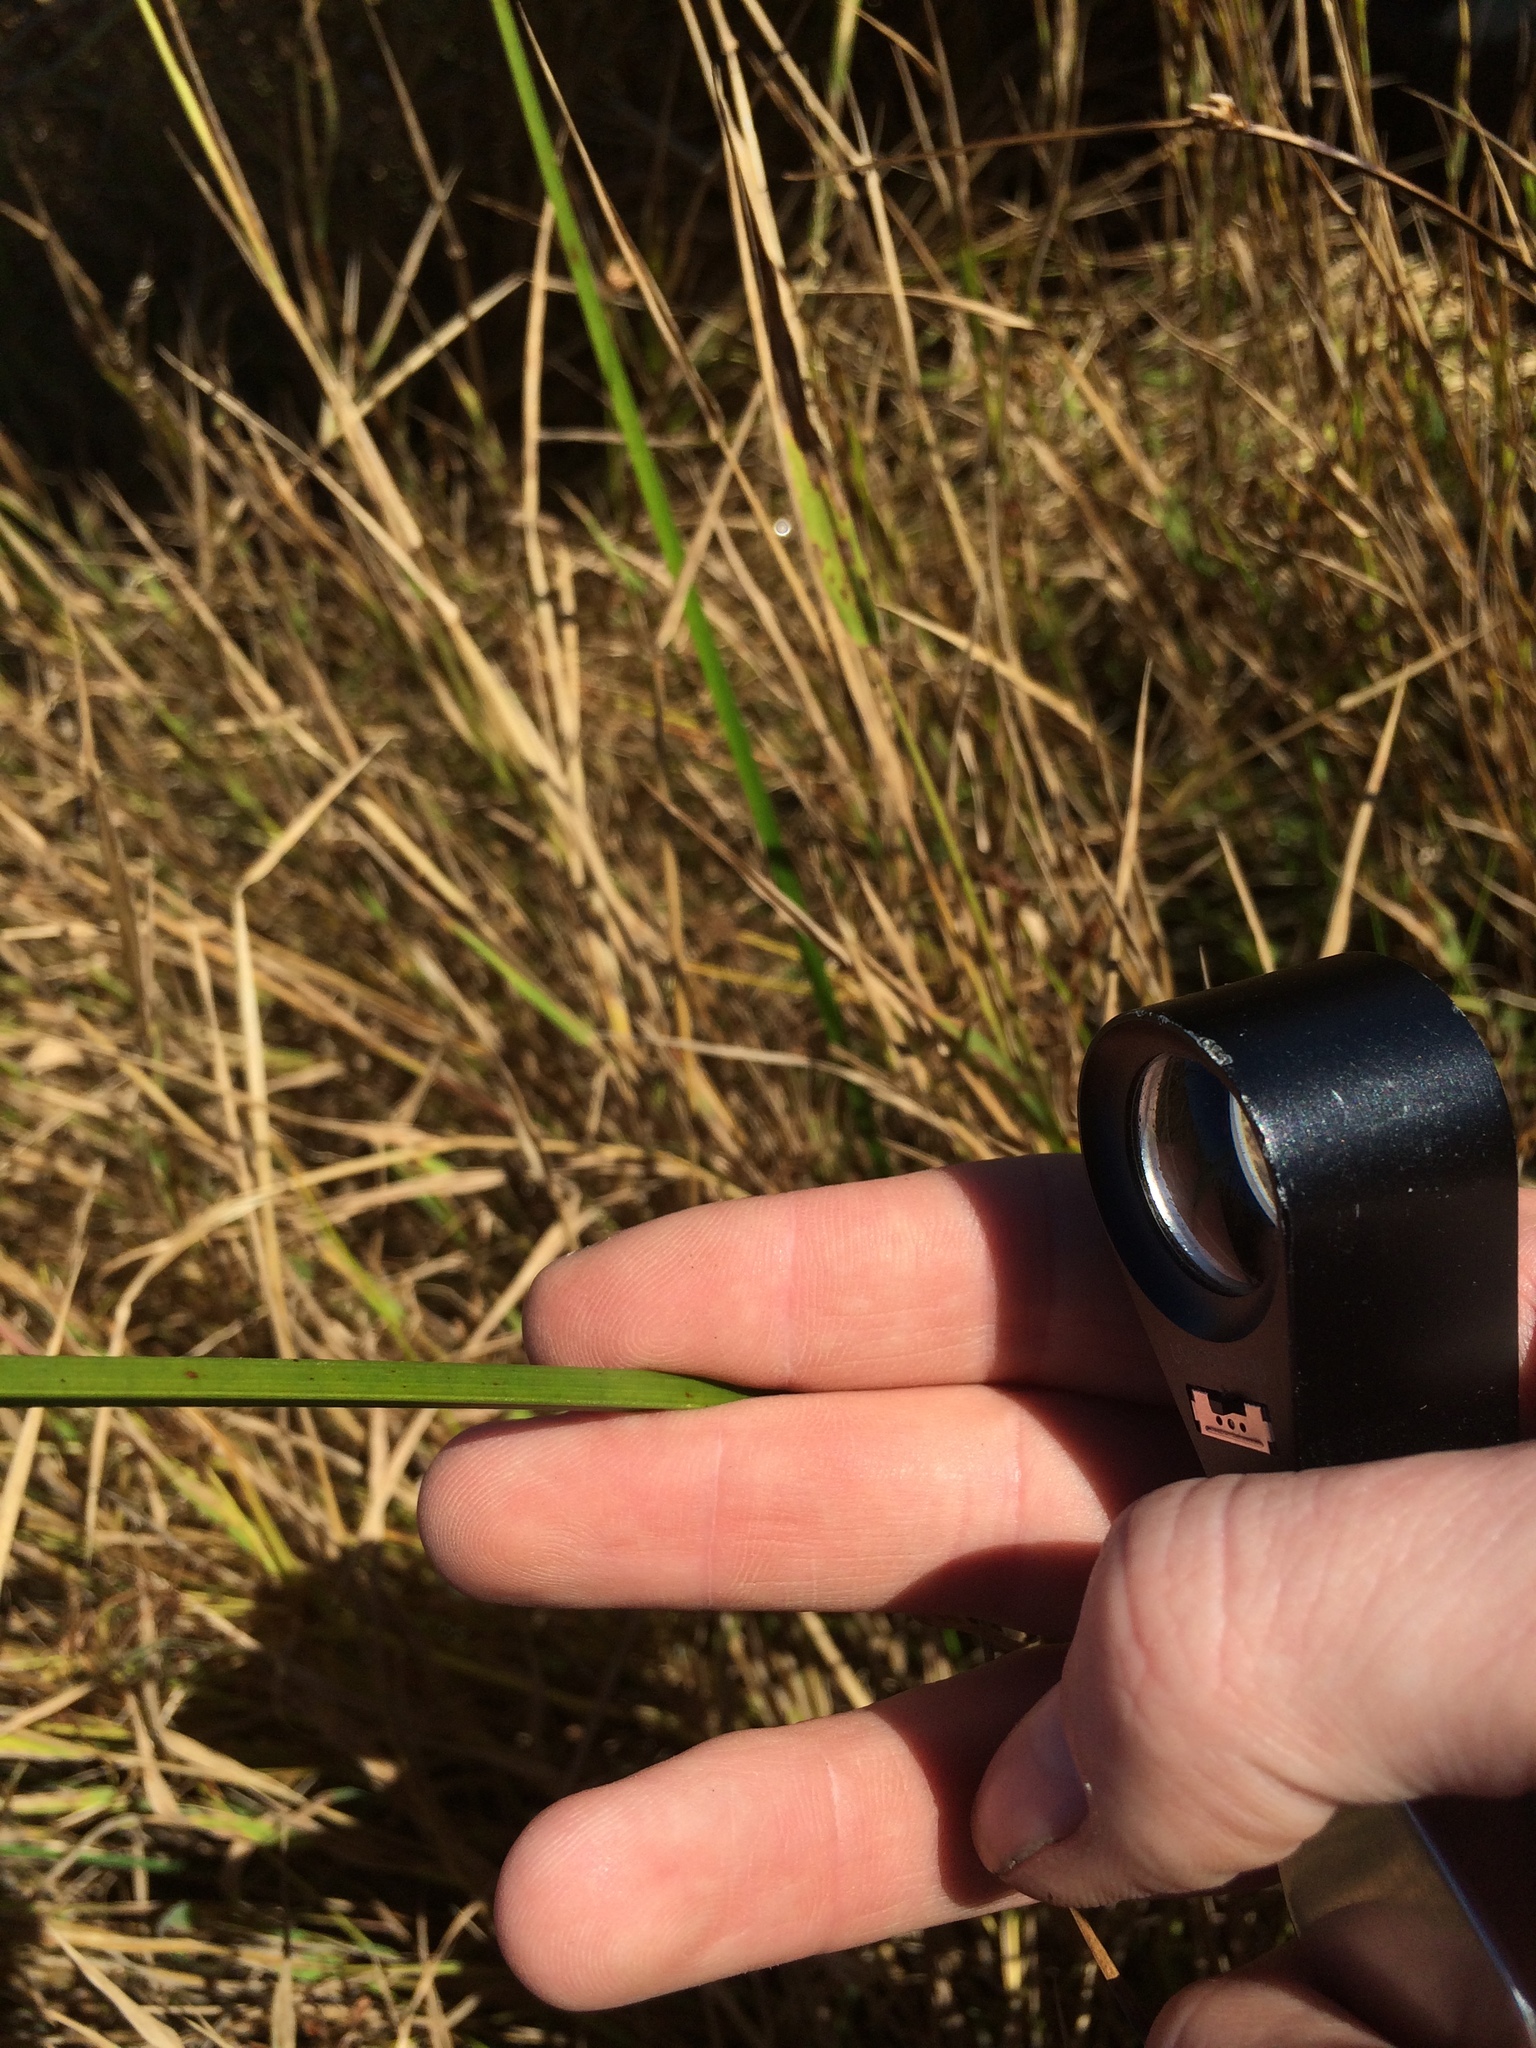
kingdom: Plantae
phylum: Tracheophyta
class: Liliopsida
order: Poales
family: Cyperaceae
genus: Schoenoplectus
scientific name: Schoenoplectus torreyi
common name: Torrey's bulrush
